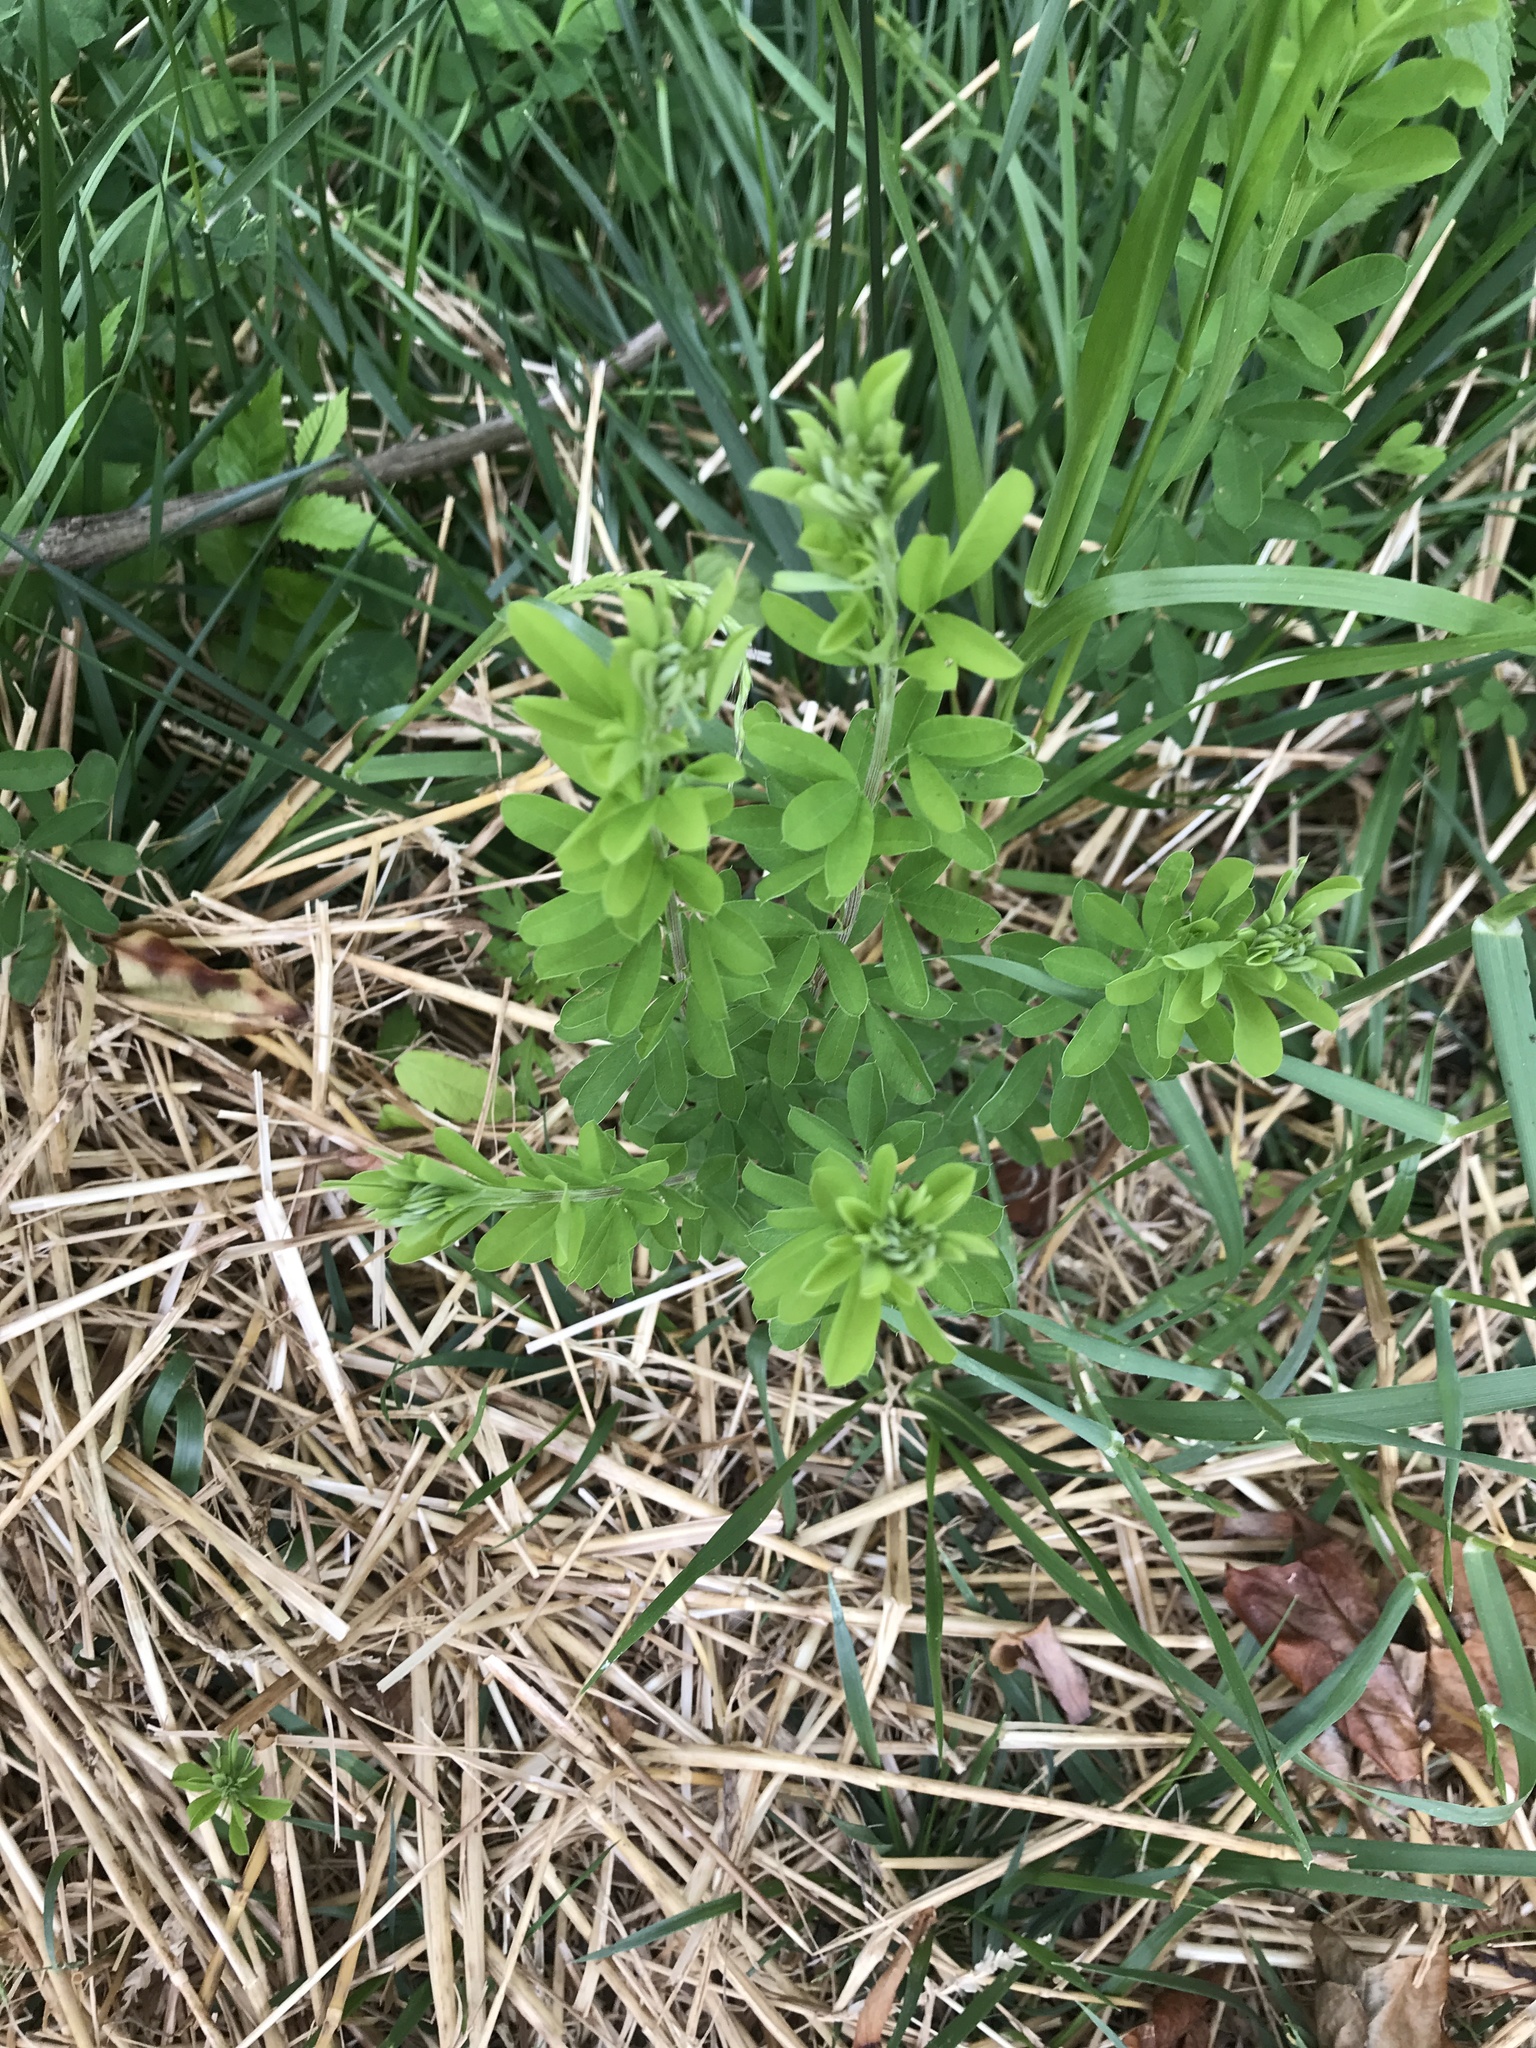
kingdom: Plantae
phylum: Tracheophyta
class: Magnoliopsida
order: Fabales
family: Fabaceae
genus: Lespedeza
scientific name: Lespedeza cuneata
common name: Chinese bush-clover
